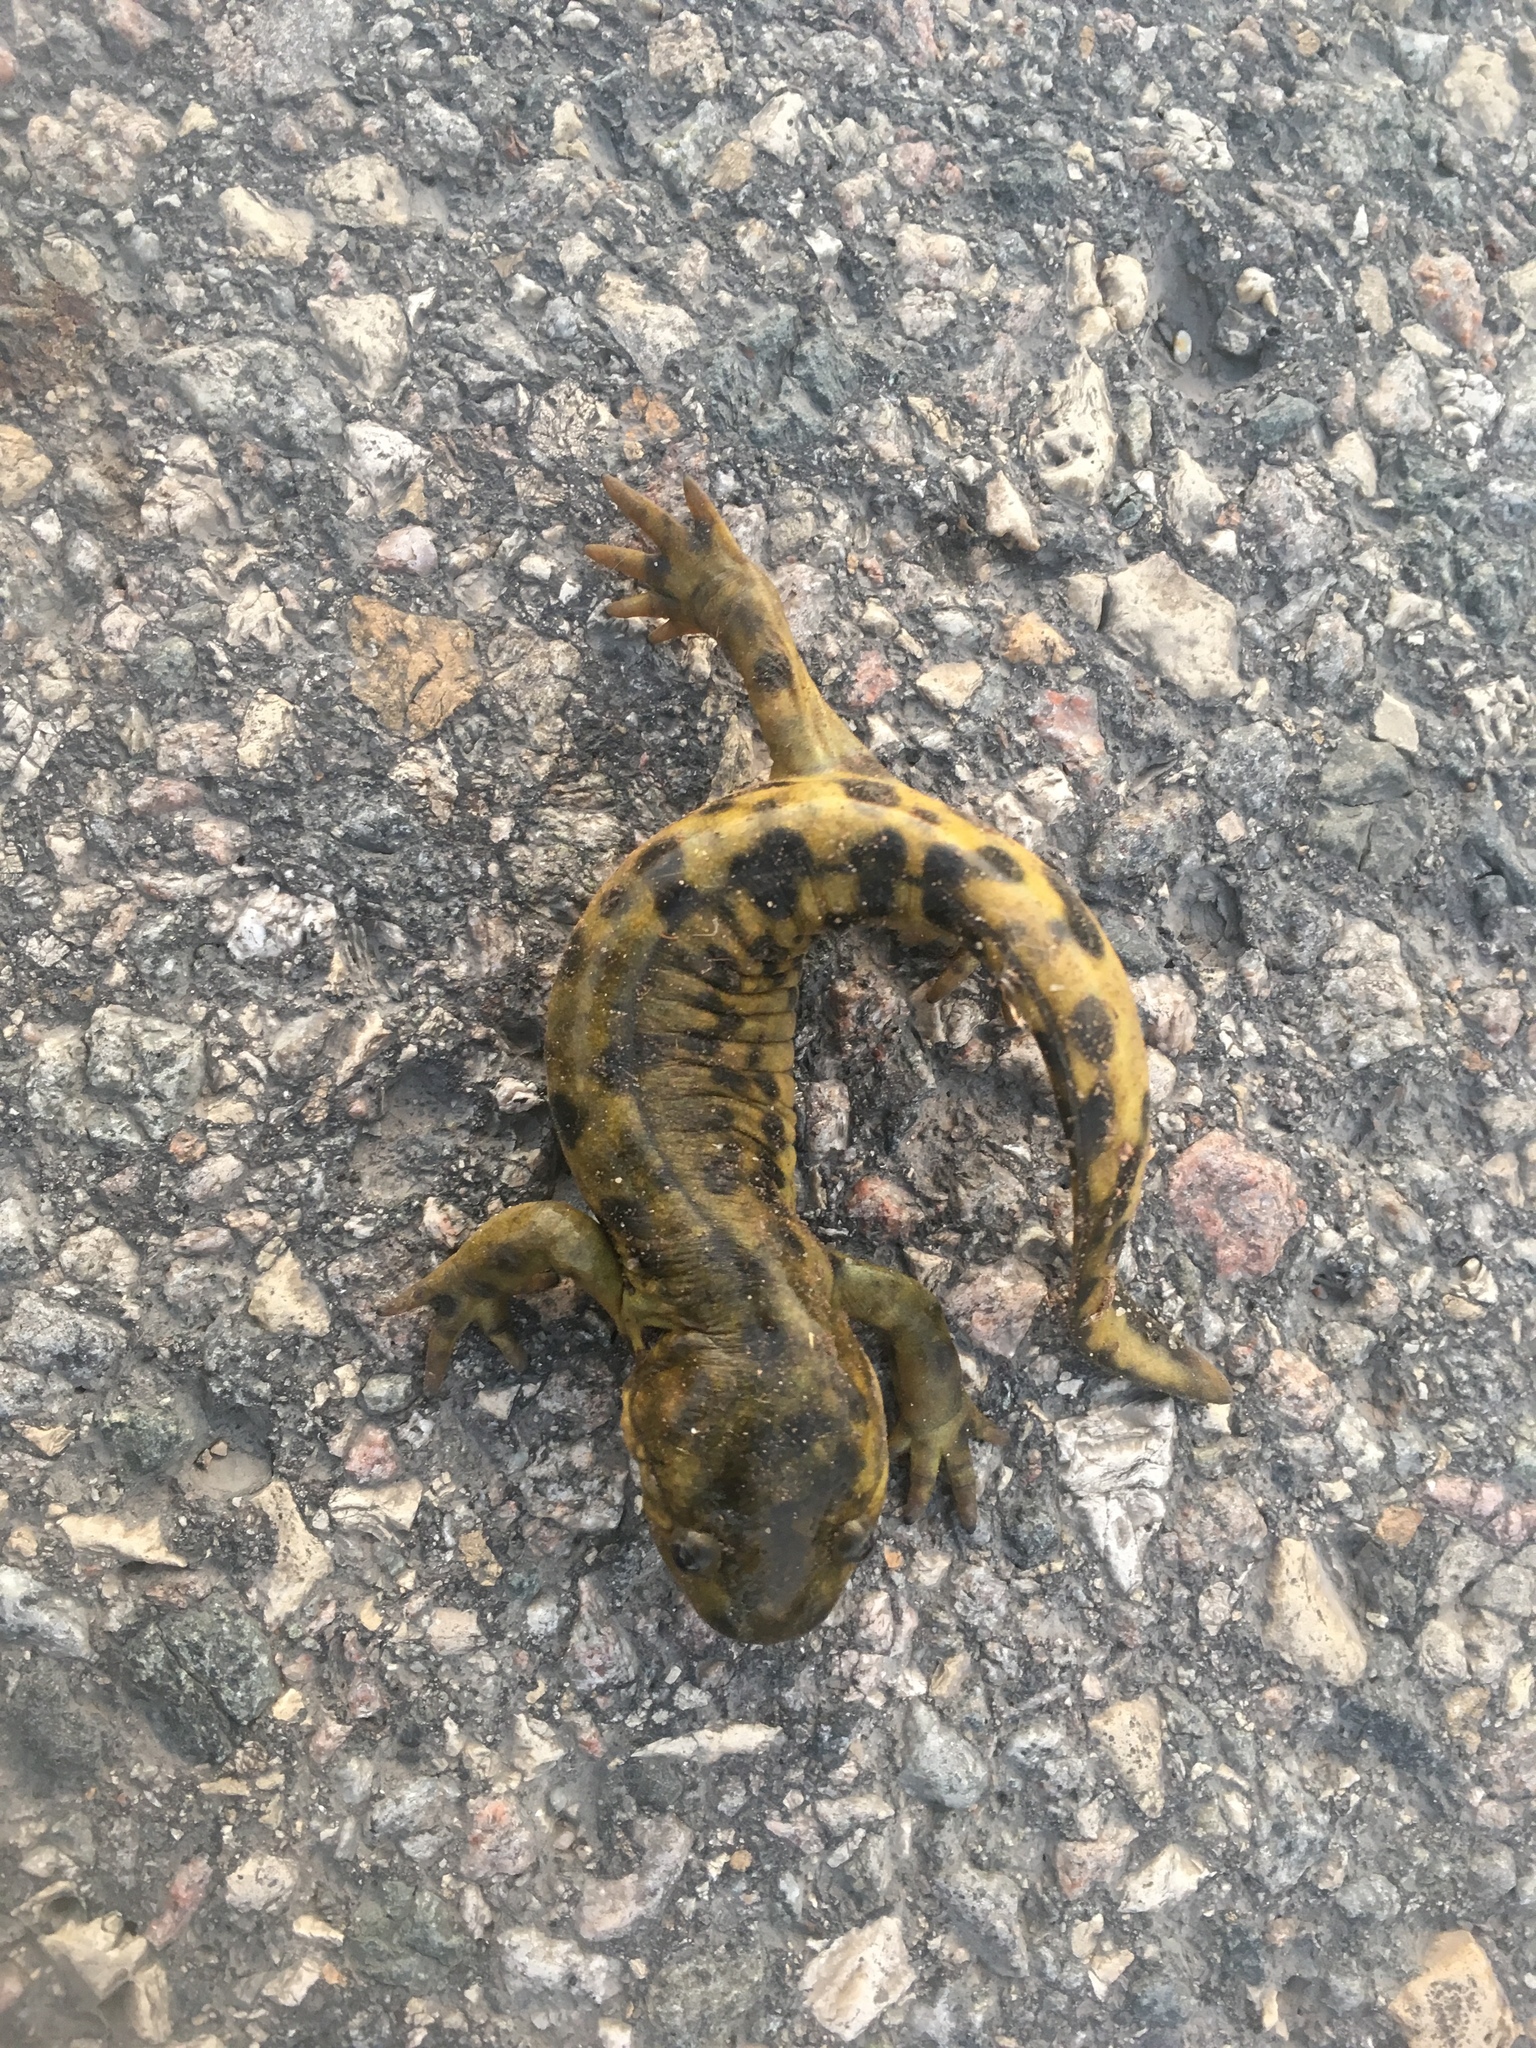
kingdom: Animalia
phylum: Chordata
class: Amphibia
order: Caudata
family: Ambystomatidae
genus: Ambystoma
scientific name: Ambystoma mavortium
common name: Western tiger salamander
